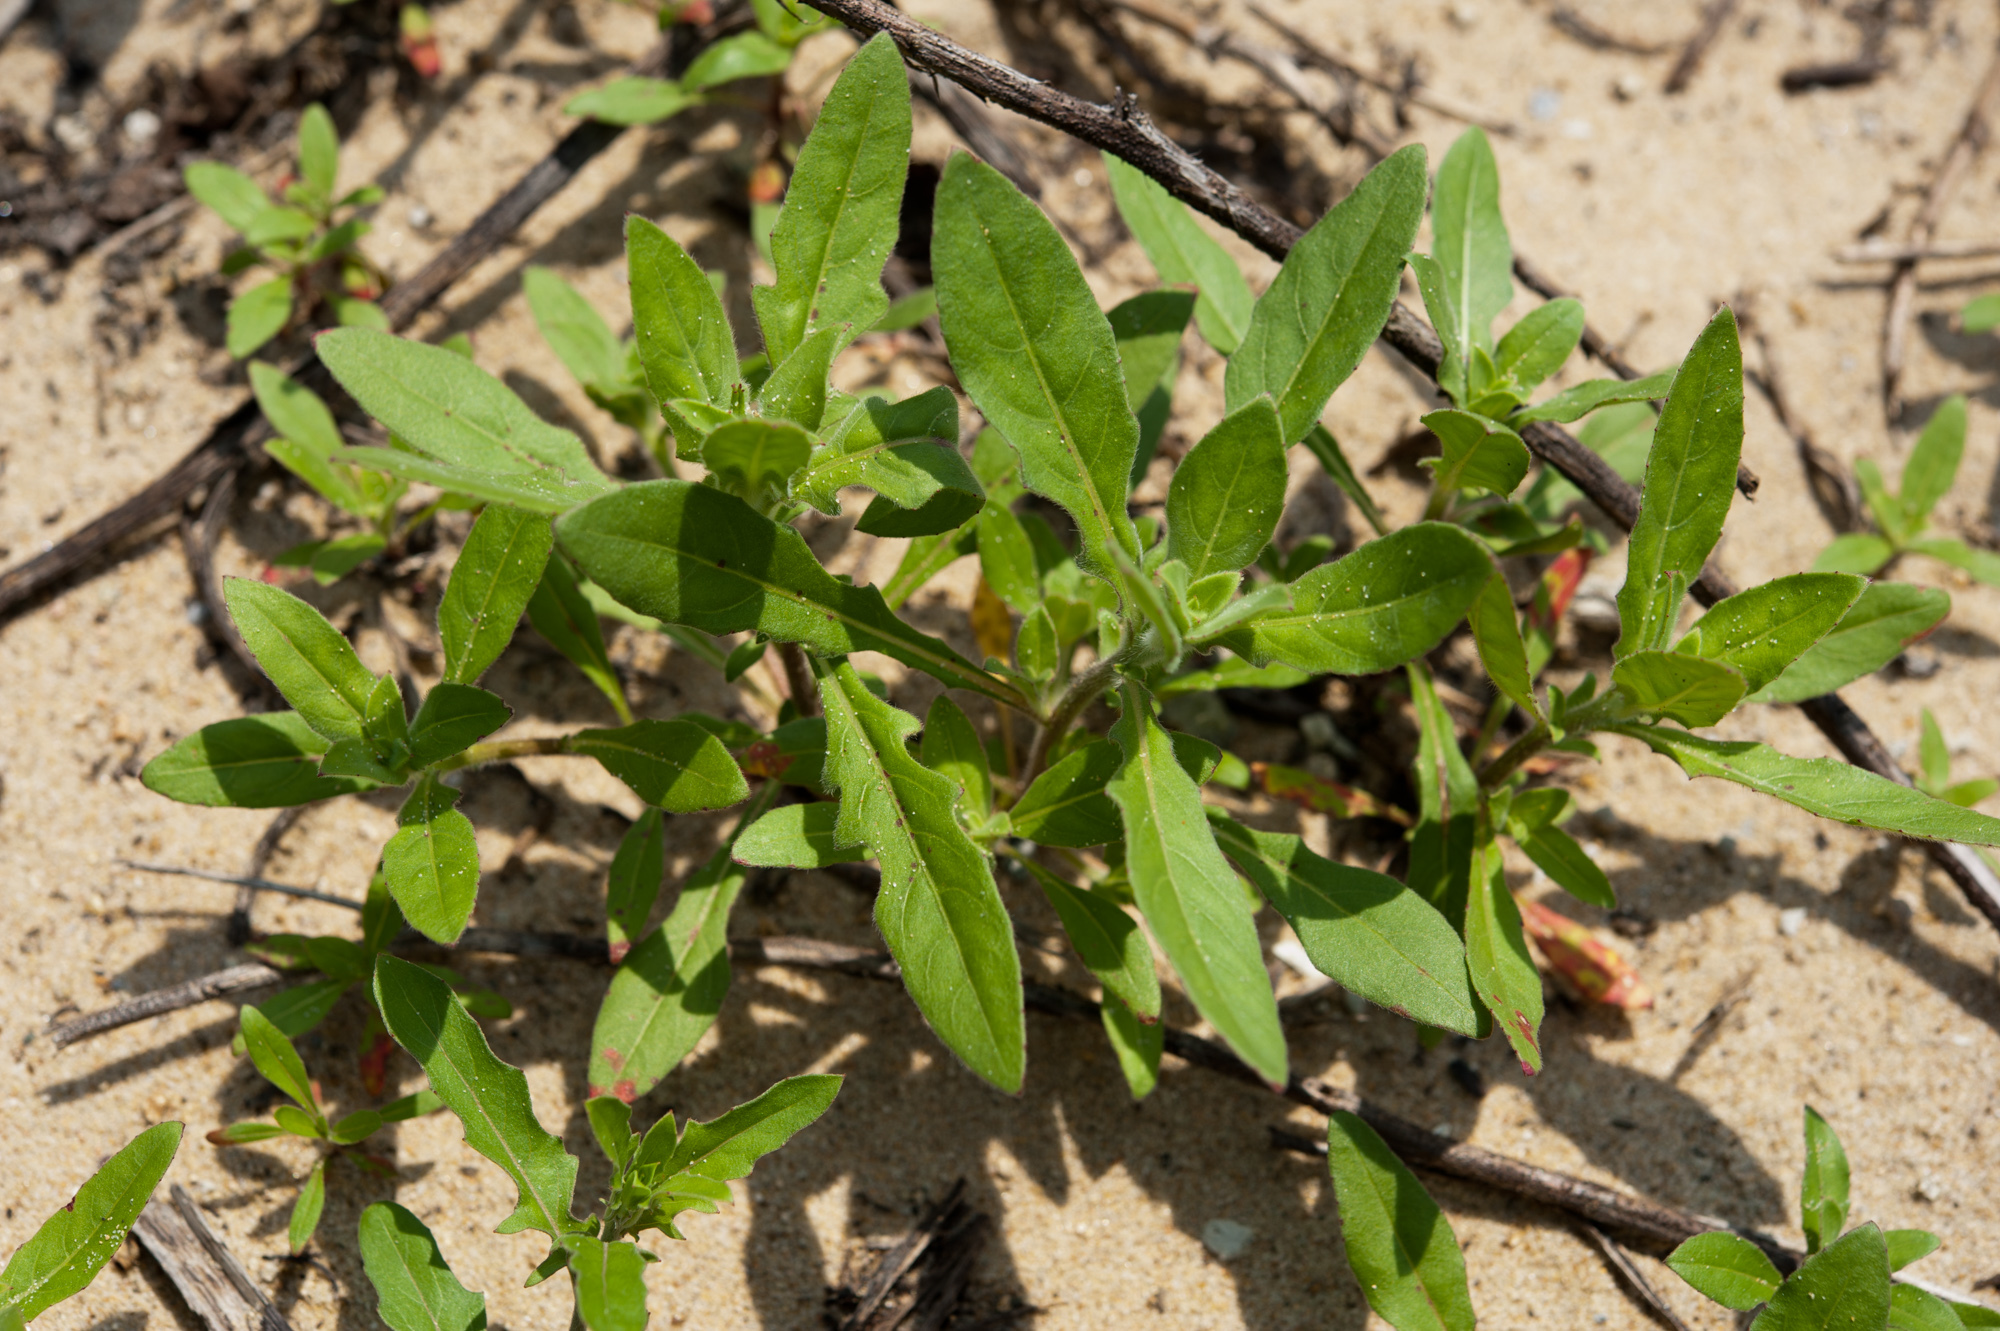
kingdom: Plantae
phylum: Tracheophyta
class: Magnoliopsida
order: Myrtales
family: Onagraceae
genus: Oenothera
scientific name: Oenothera laciniata
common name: Cut-leaved evening-primrose
